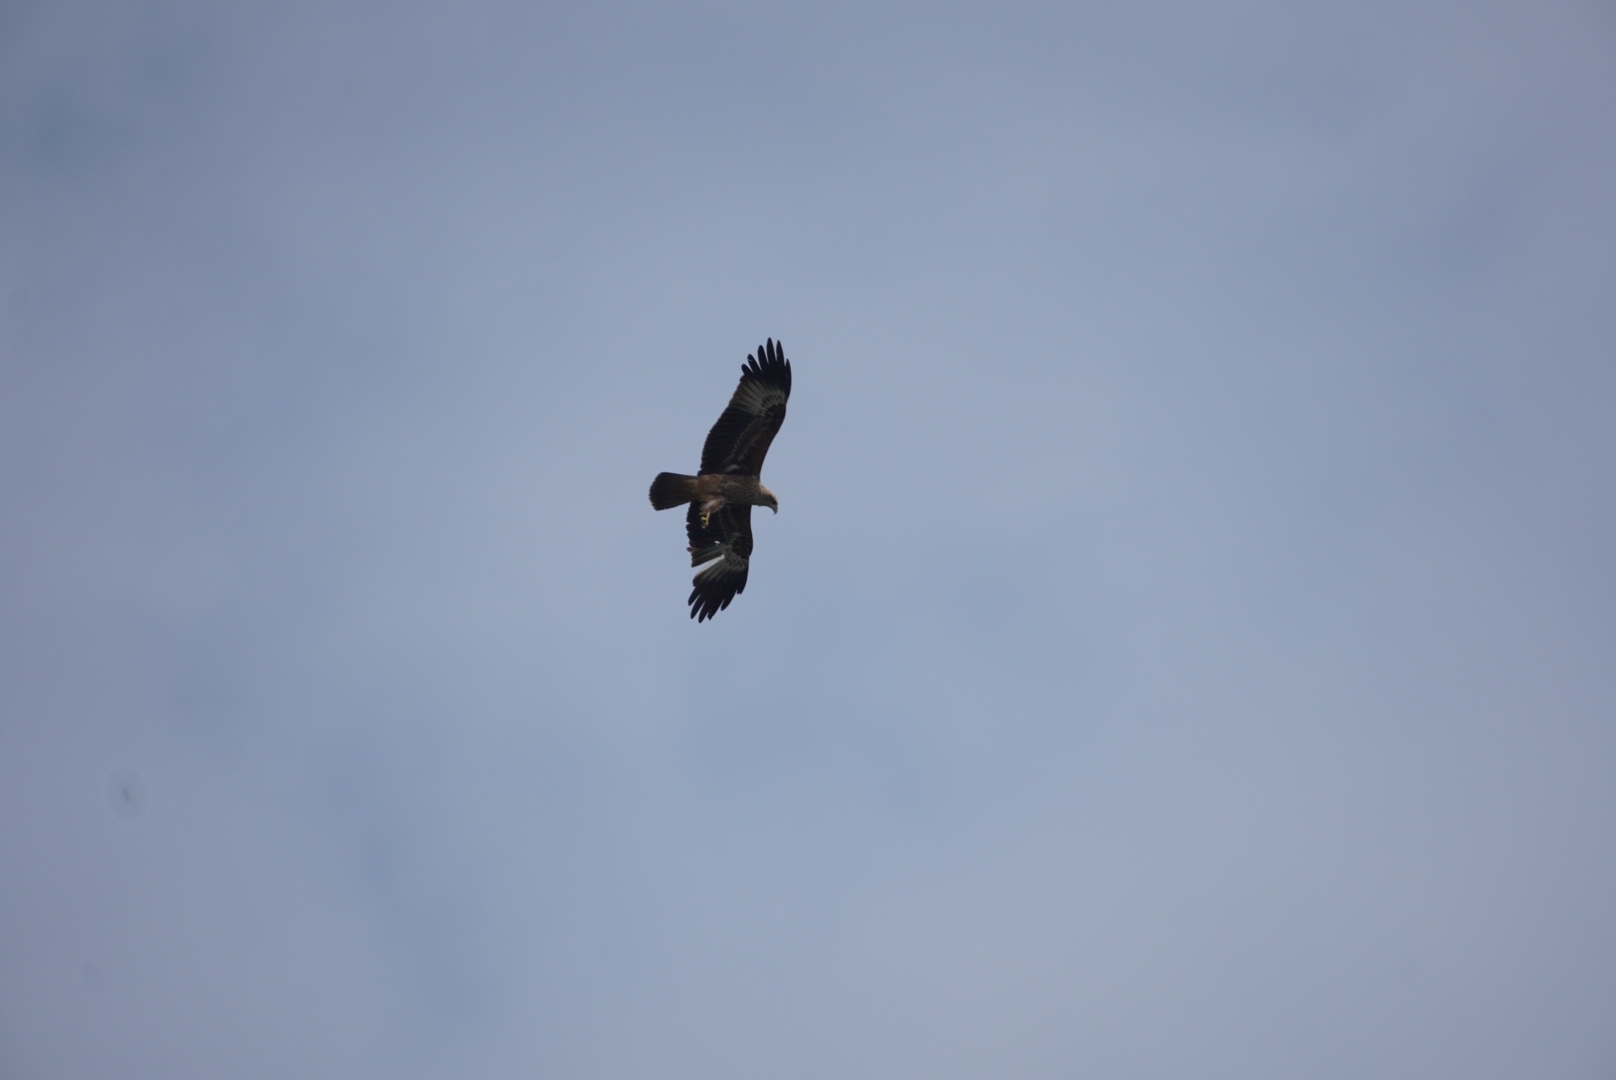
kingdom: Animalia
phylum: Chordata
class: Aves
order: Accipitriformes
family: Accipitridae
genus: Haliastur
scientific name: Haliastur indus
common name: Brahminy kite
